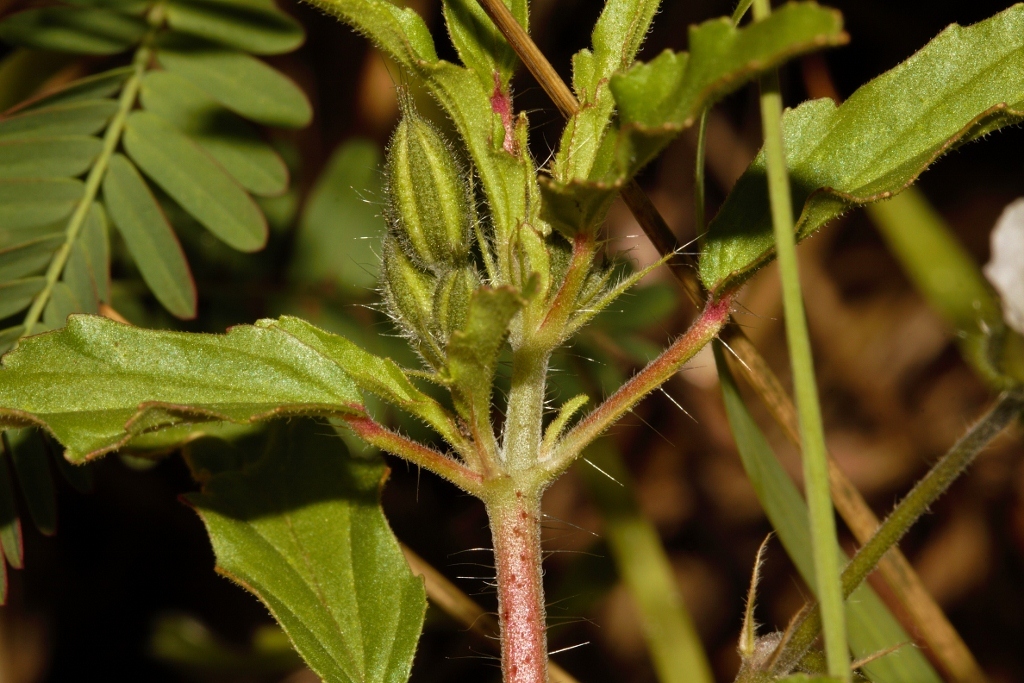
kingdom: Plantae
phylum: Tracheophyta
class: Magnoliopsida
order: Geraniales
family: Geraniaceae
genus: Monsonia
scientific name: Monsonia biflora
